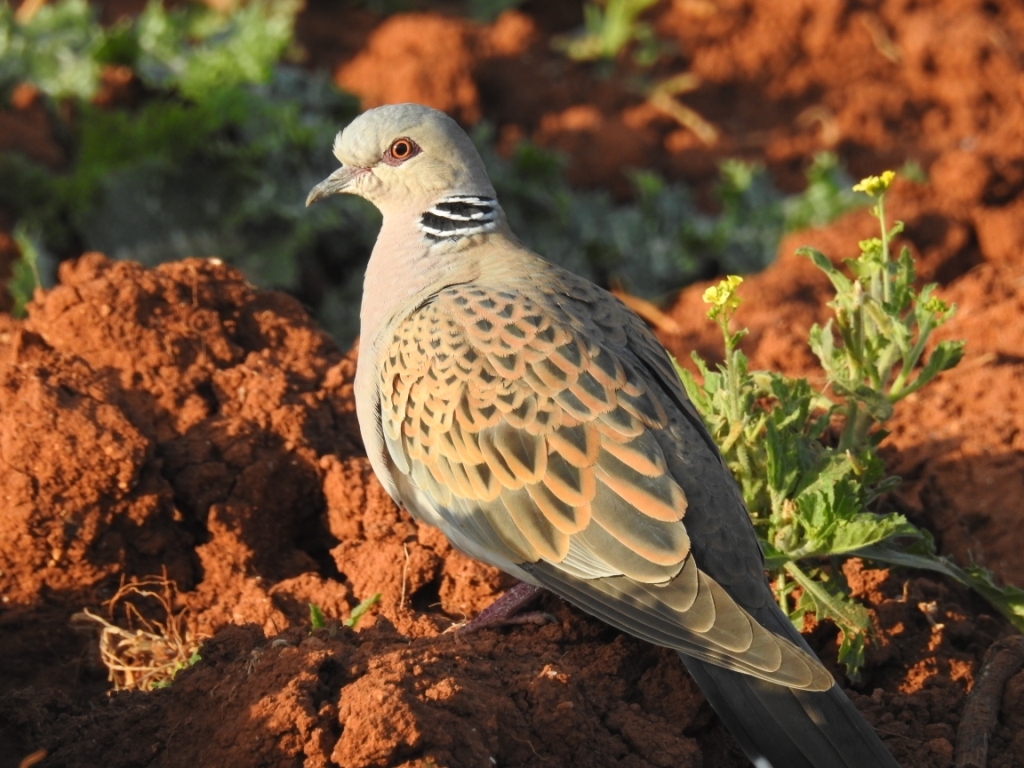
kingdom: Animalia
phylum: Chordata
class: Aves
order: Columbiformes
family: Columbidae
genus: Streptopelia
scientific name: Streptopelia turtur
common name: European turtle dove
